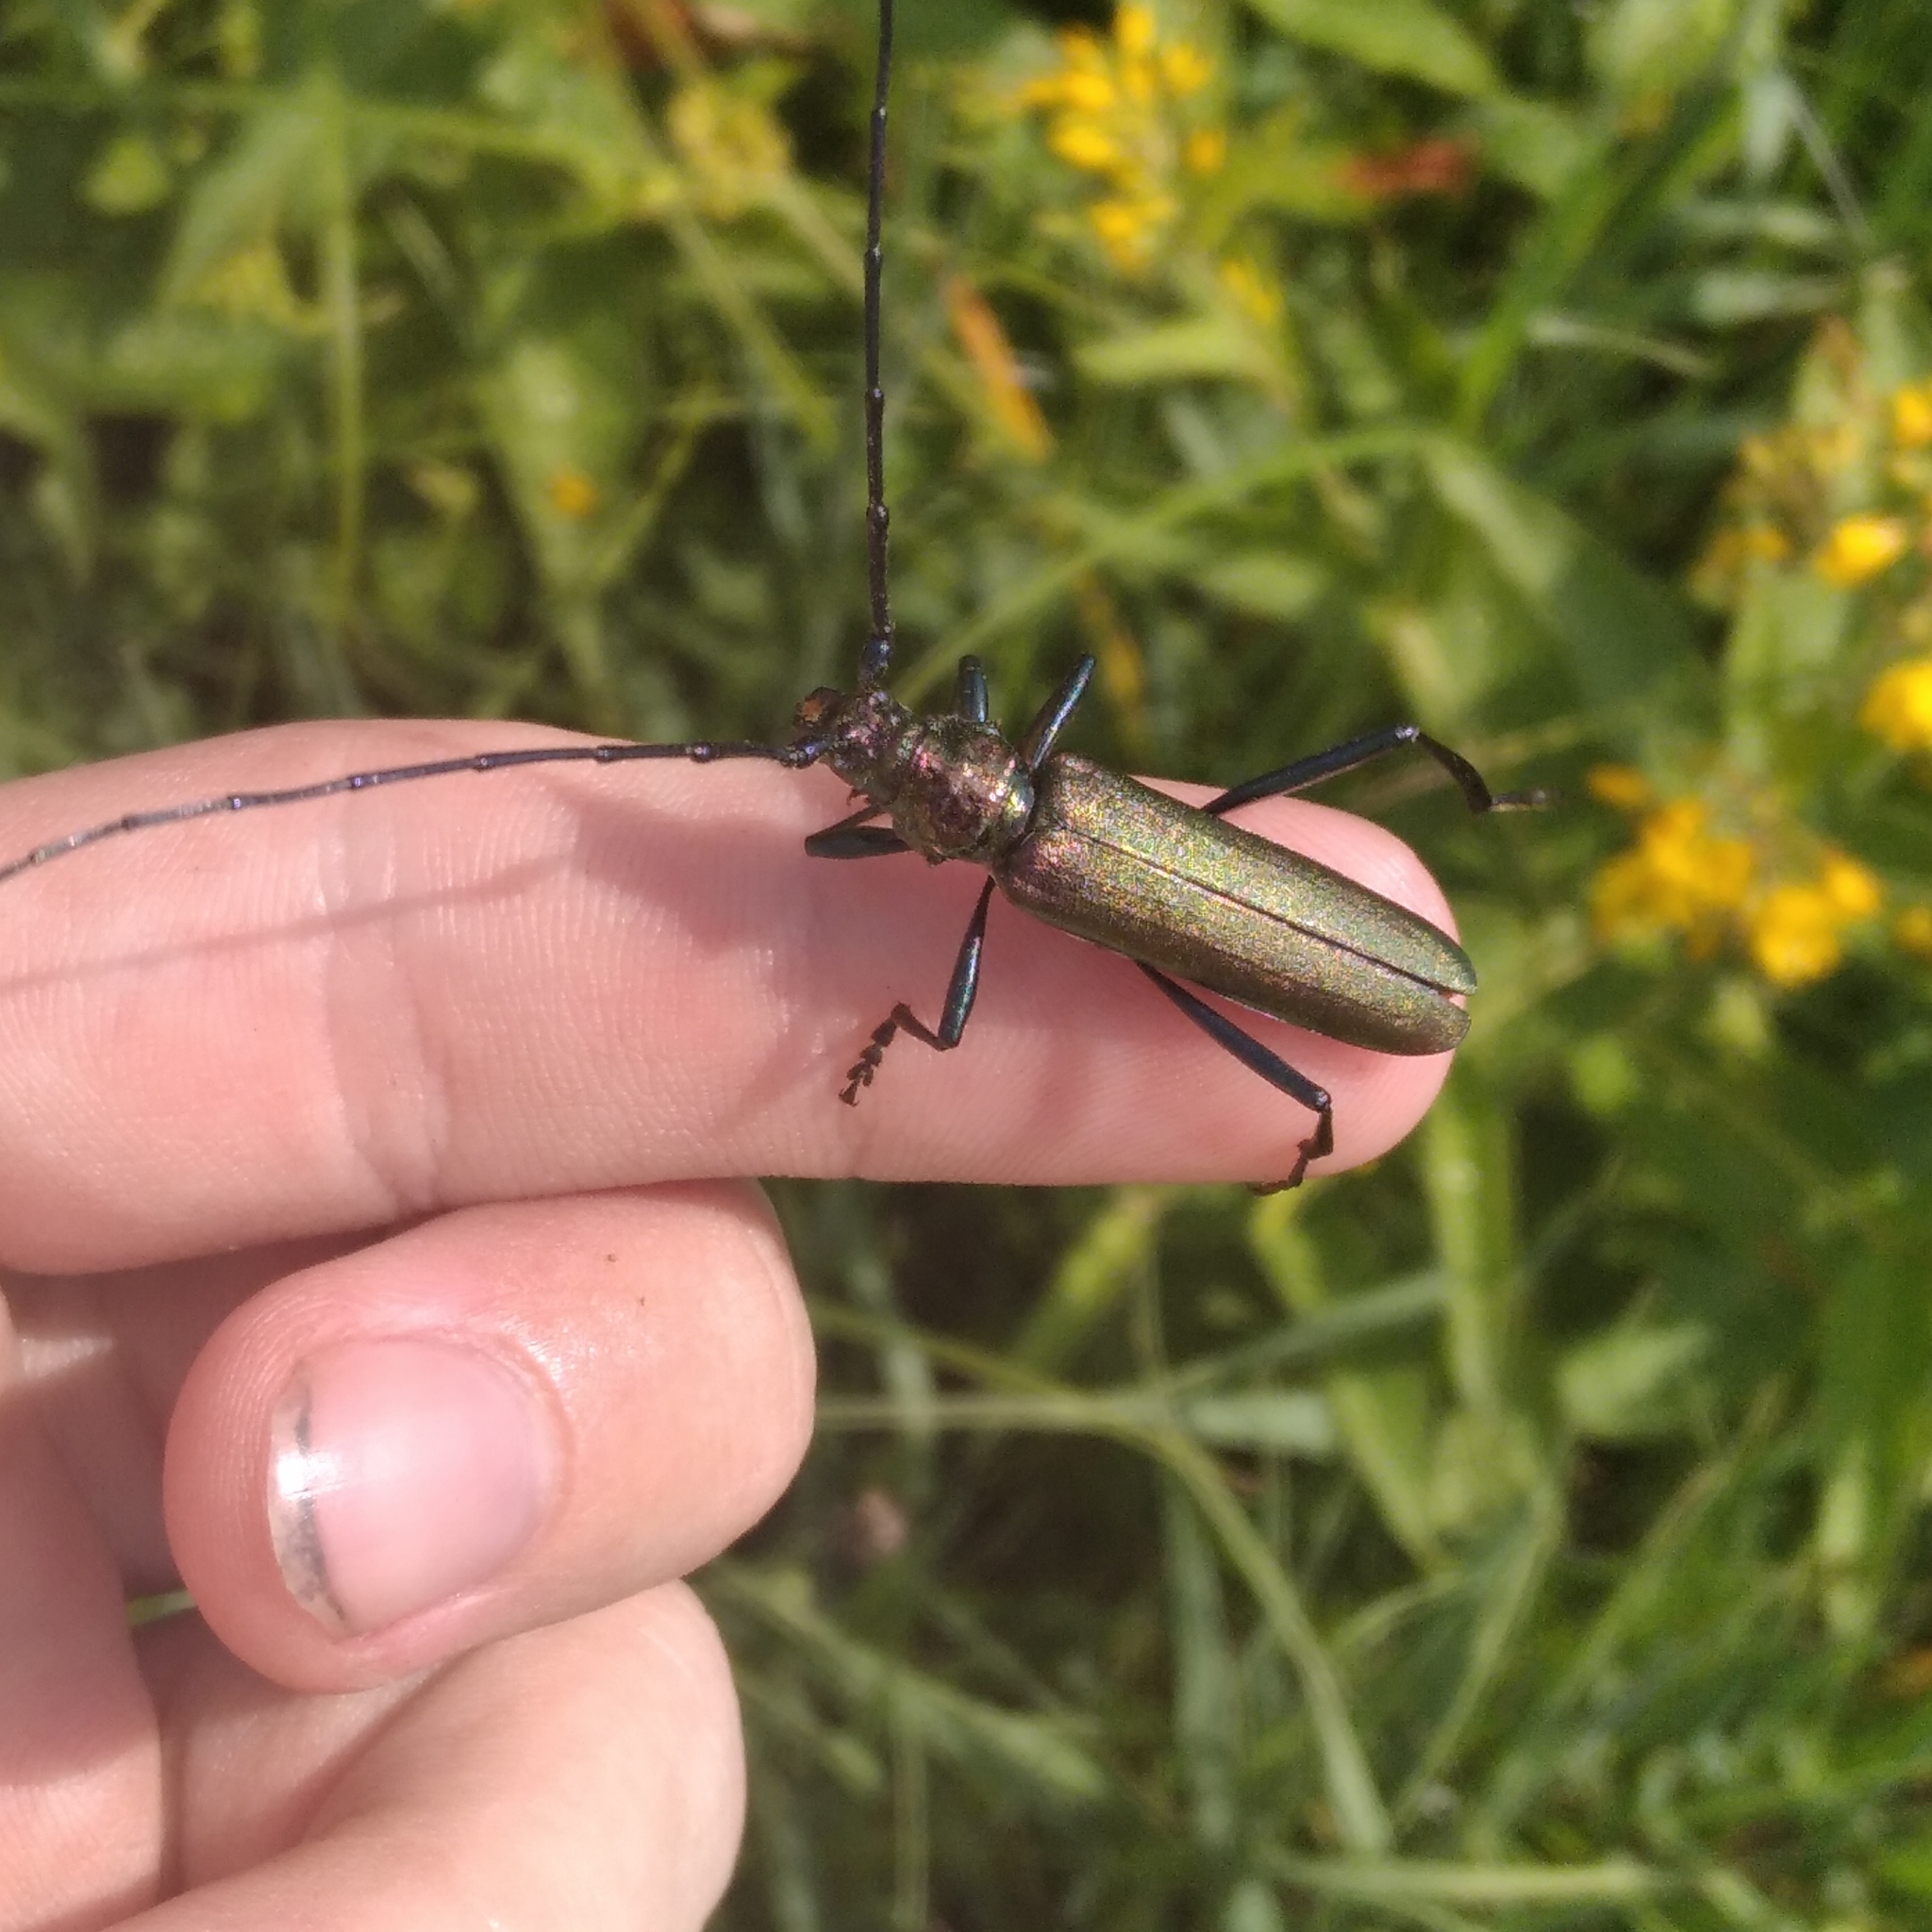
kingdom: Animalia
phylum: Arthropoda
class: Insecta
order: Coleoptera
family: Cerambycidae
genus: Aromia
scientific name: Aromia moschata
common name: Musk beetle
